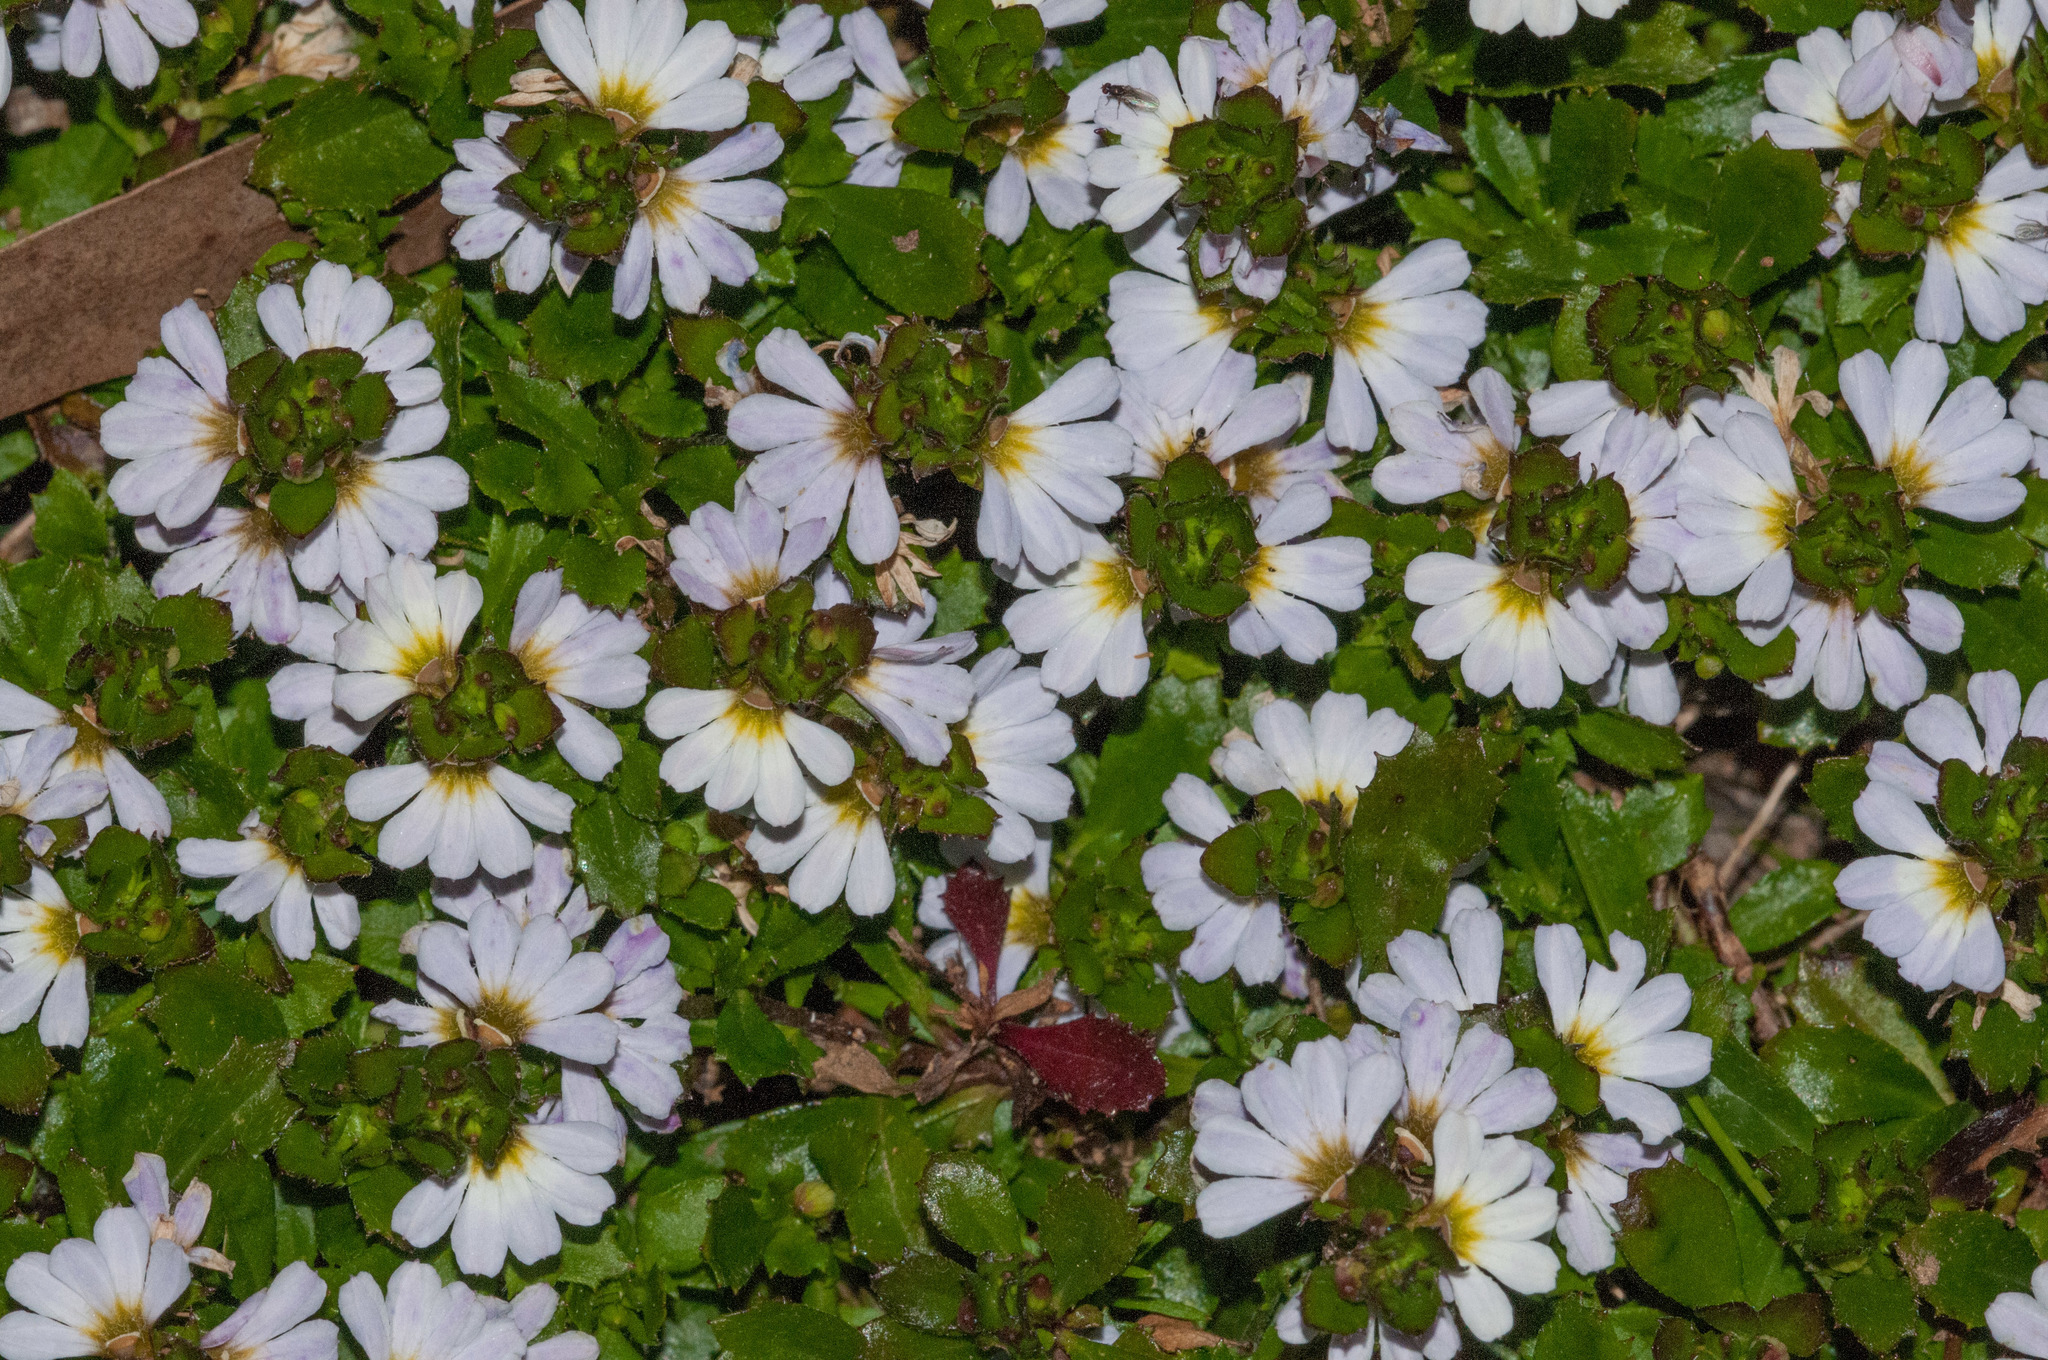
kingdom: Plantae
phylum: Tracheophyta
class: Magnoliopsida
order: Asterales
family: Goodeniaceae
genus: Scaevola
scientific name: Scaevola albida
